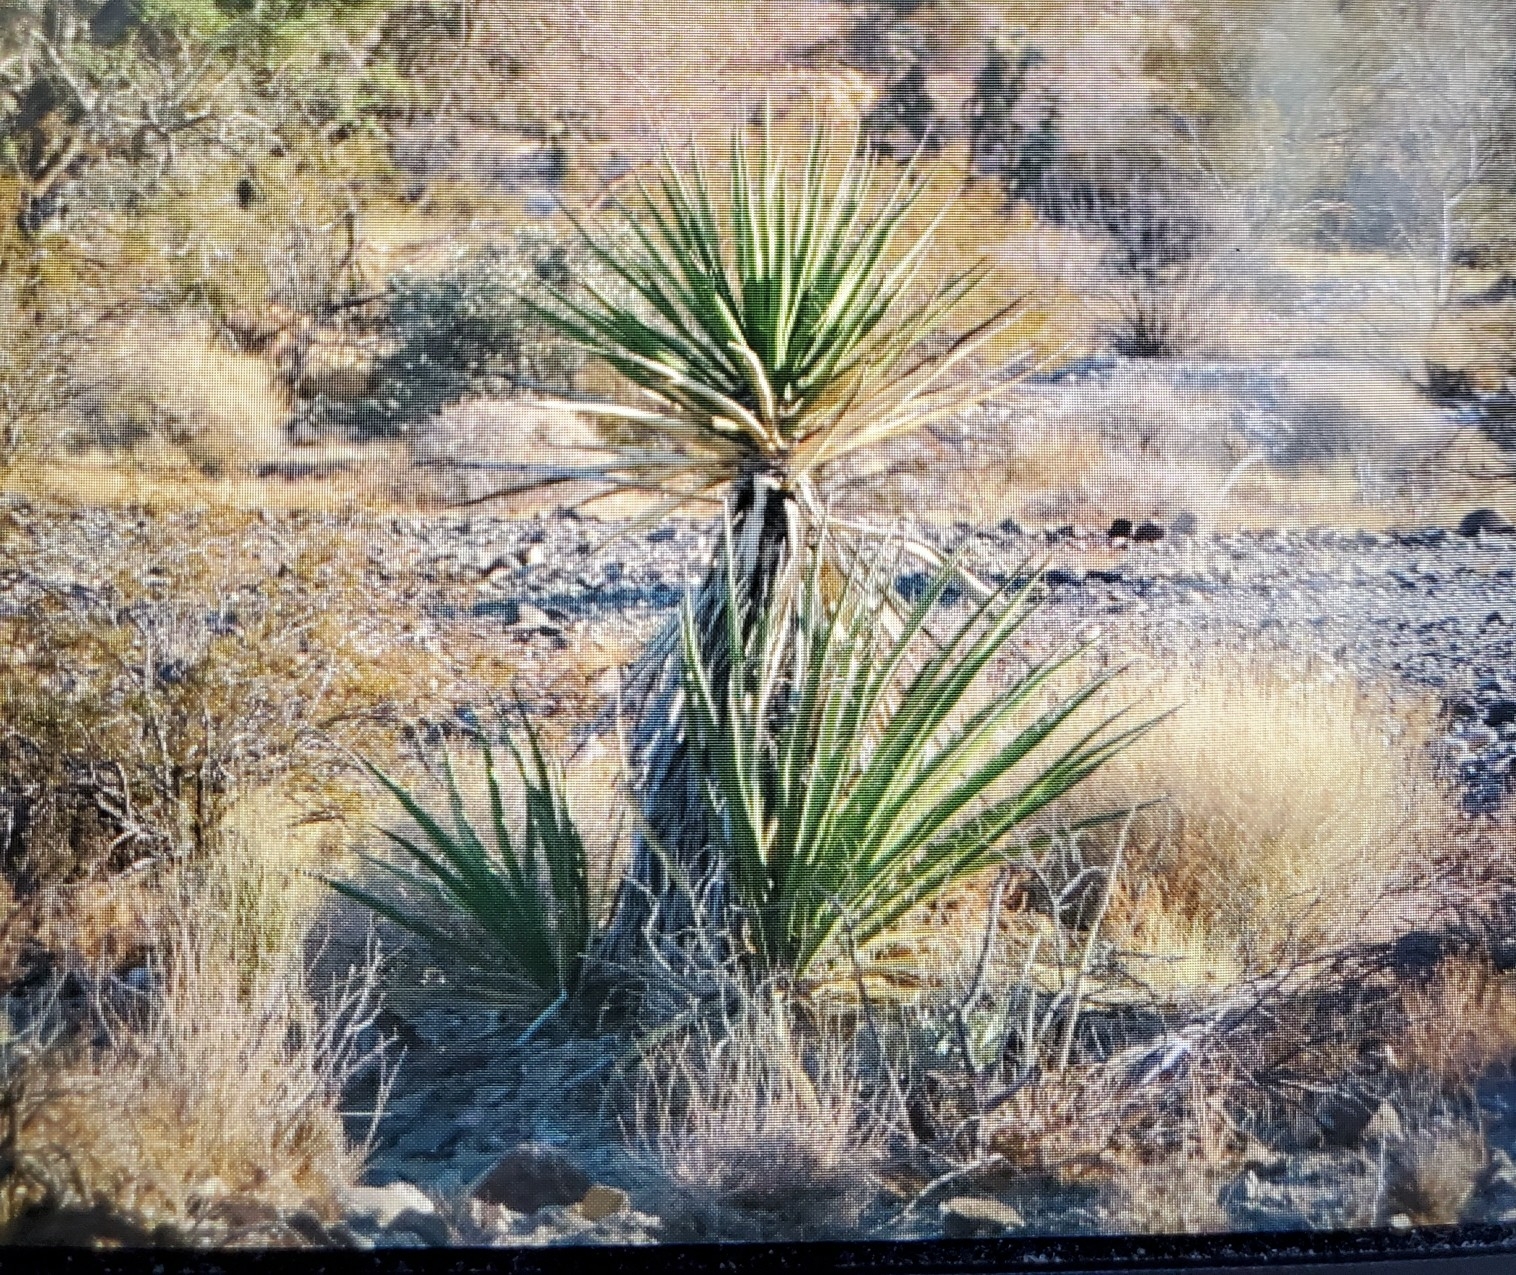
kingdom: Plantae
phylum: Tracheophyta
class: Liliopsida
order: Asparagales
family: Asparagaceae
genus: Yucca
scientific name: Yucca schidigera
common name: Mojave yucca
